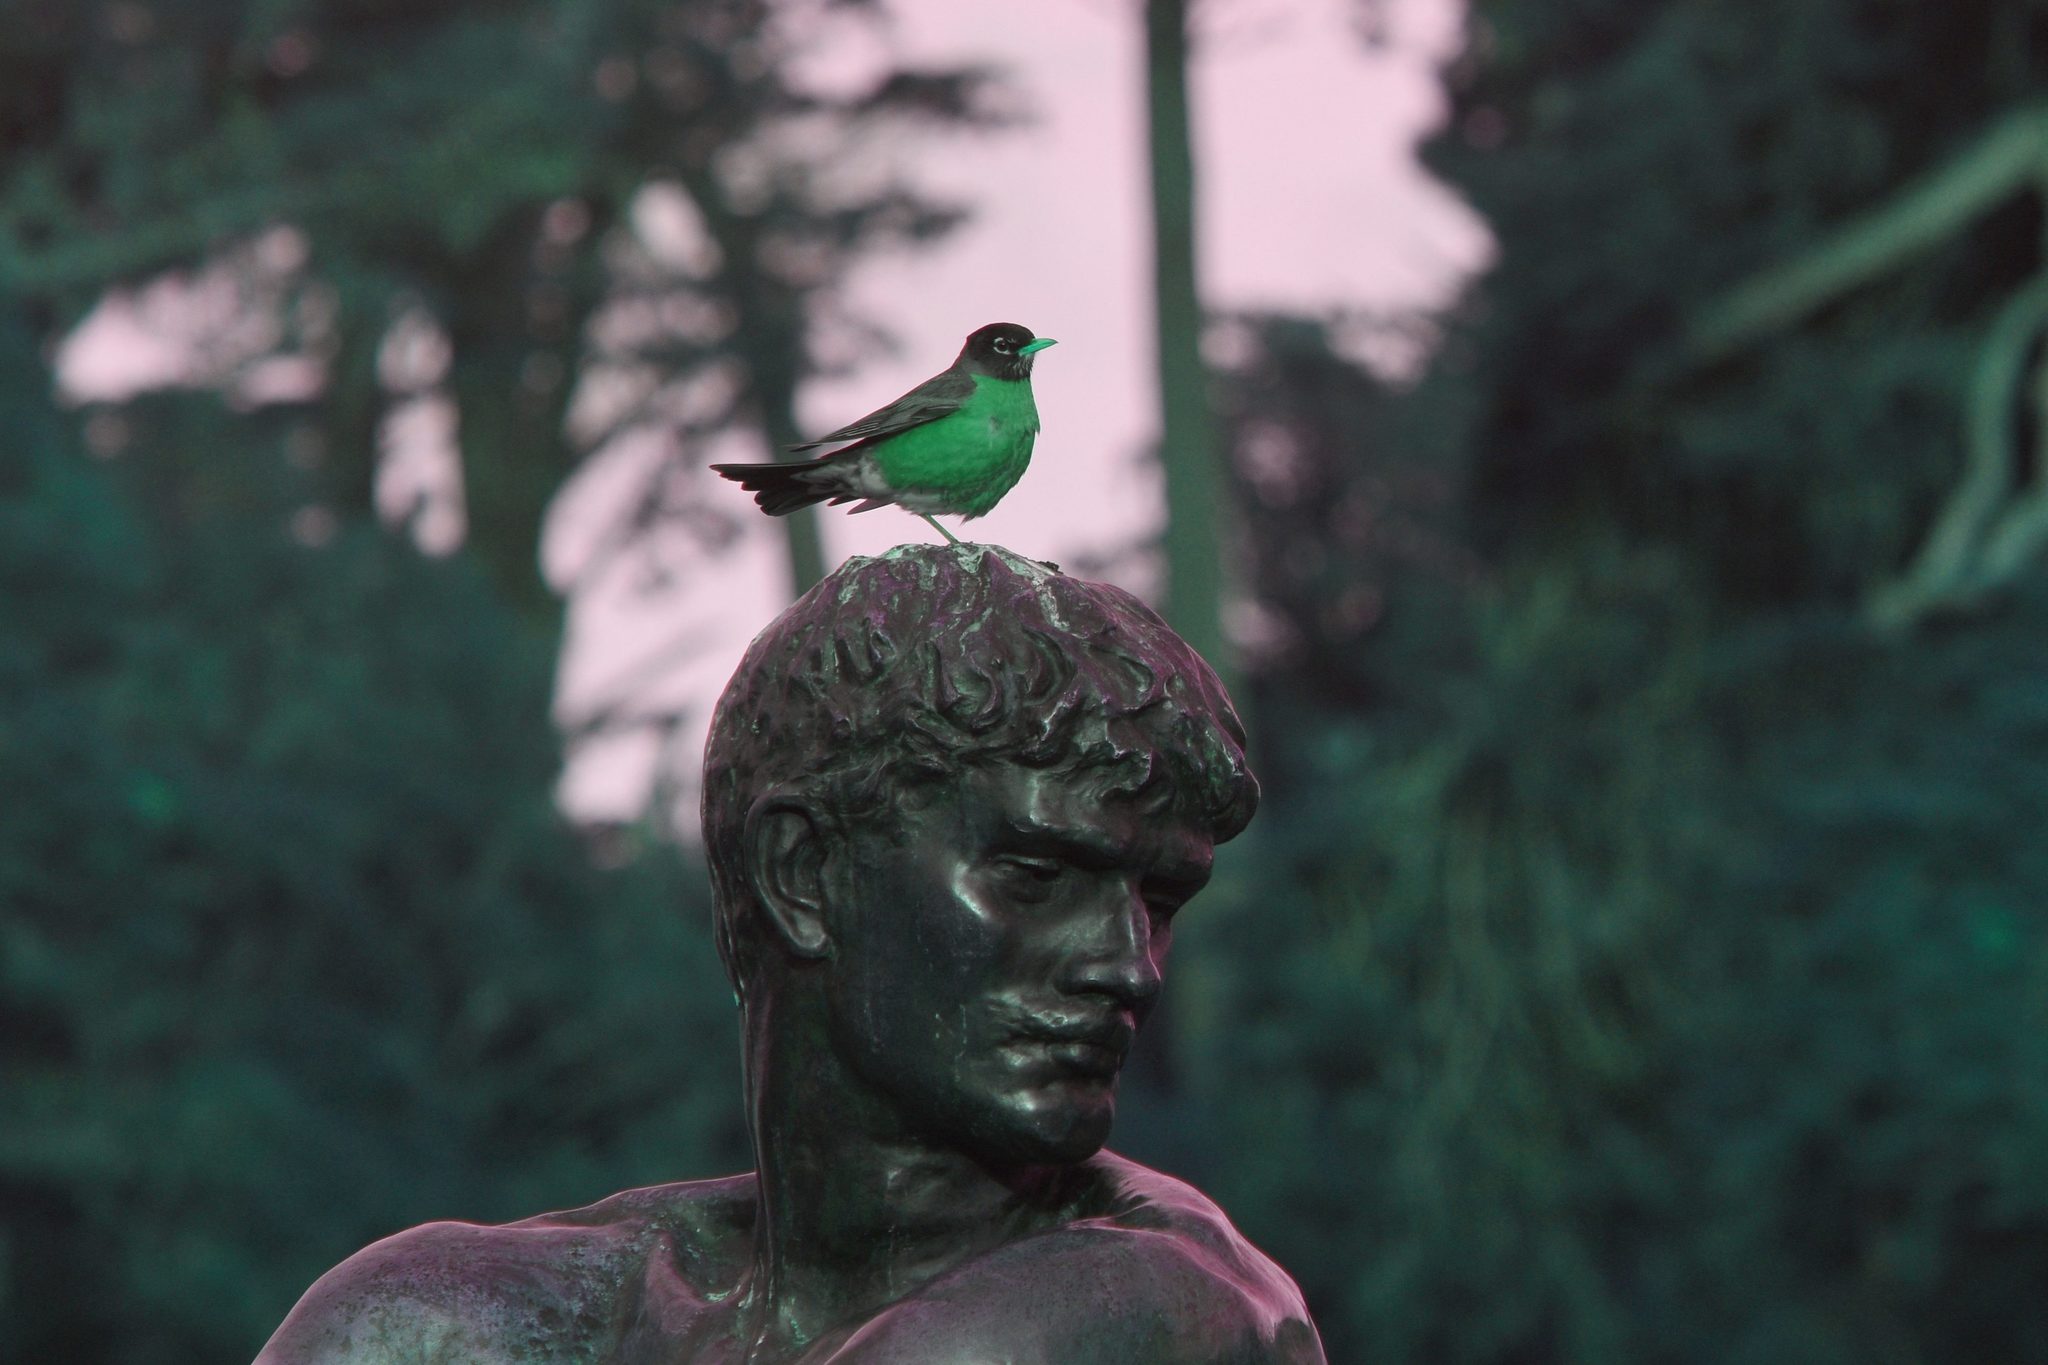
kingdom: Animalia
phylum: Chordata
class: Aves
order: Passeriformes
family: Turdidae
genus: Turdus
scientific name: Turdus migratorius
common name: American robin
